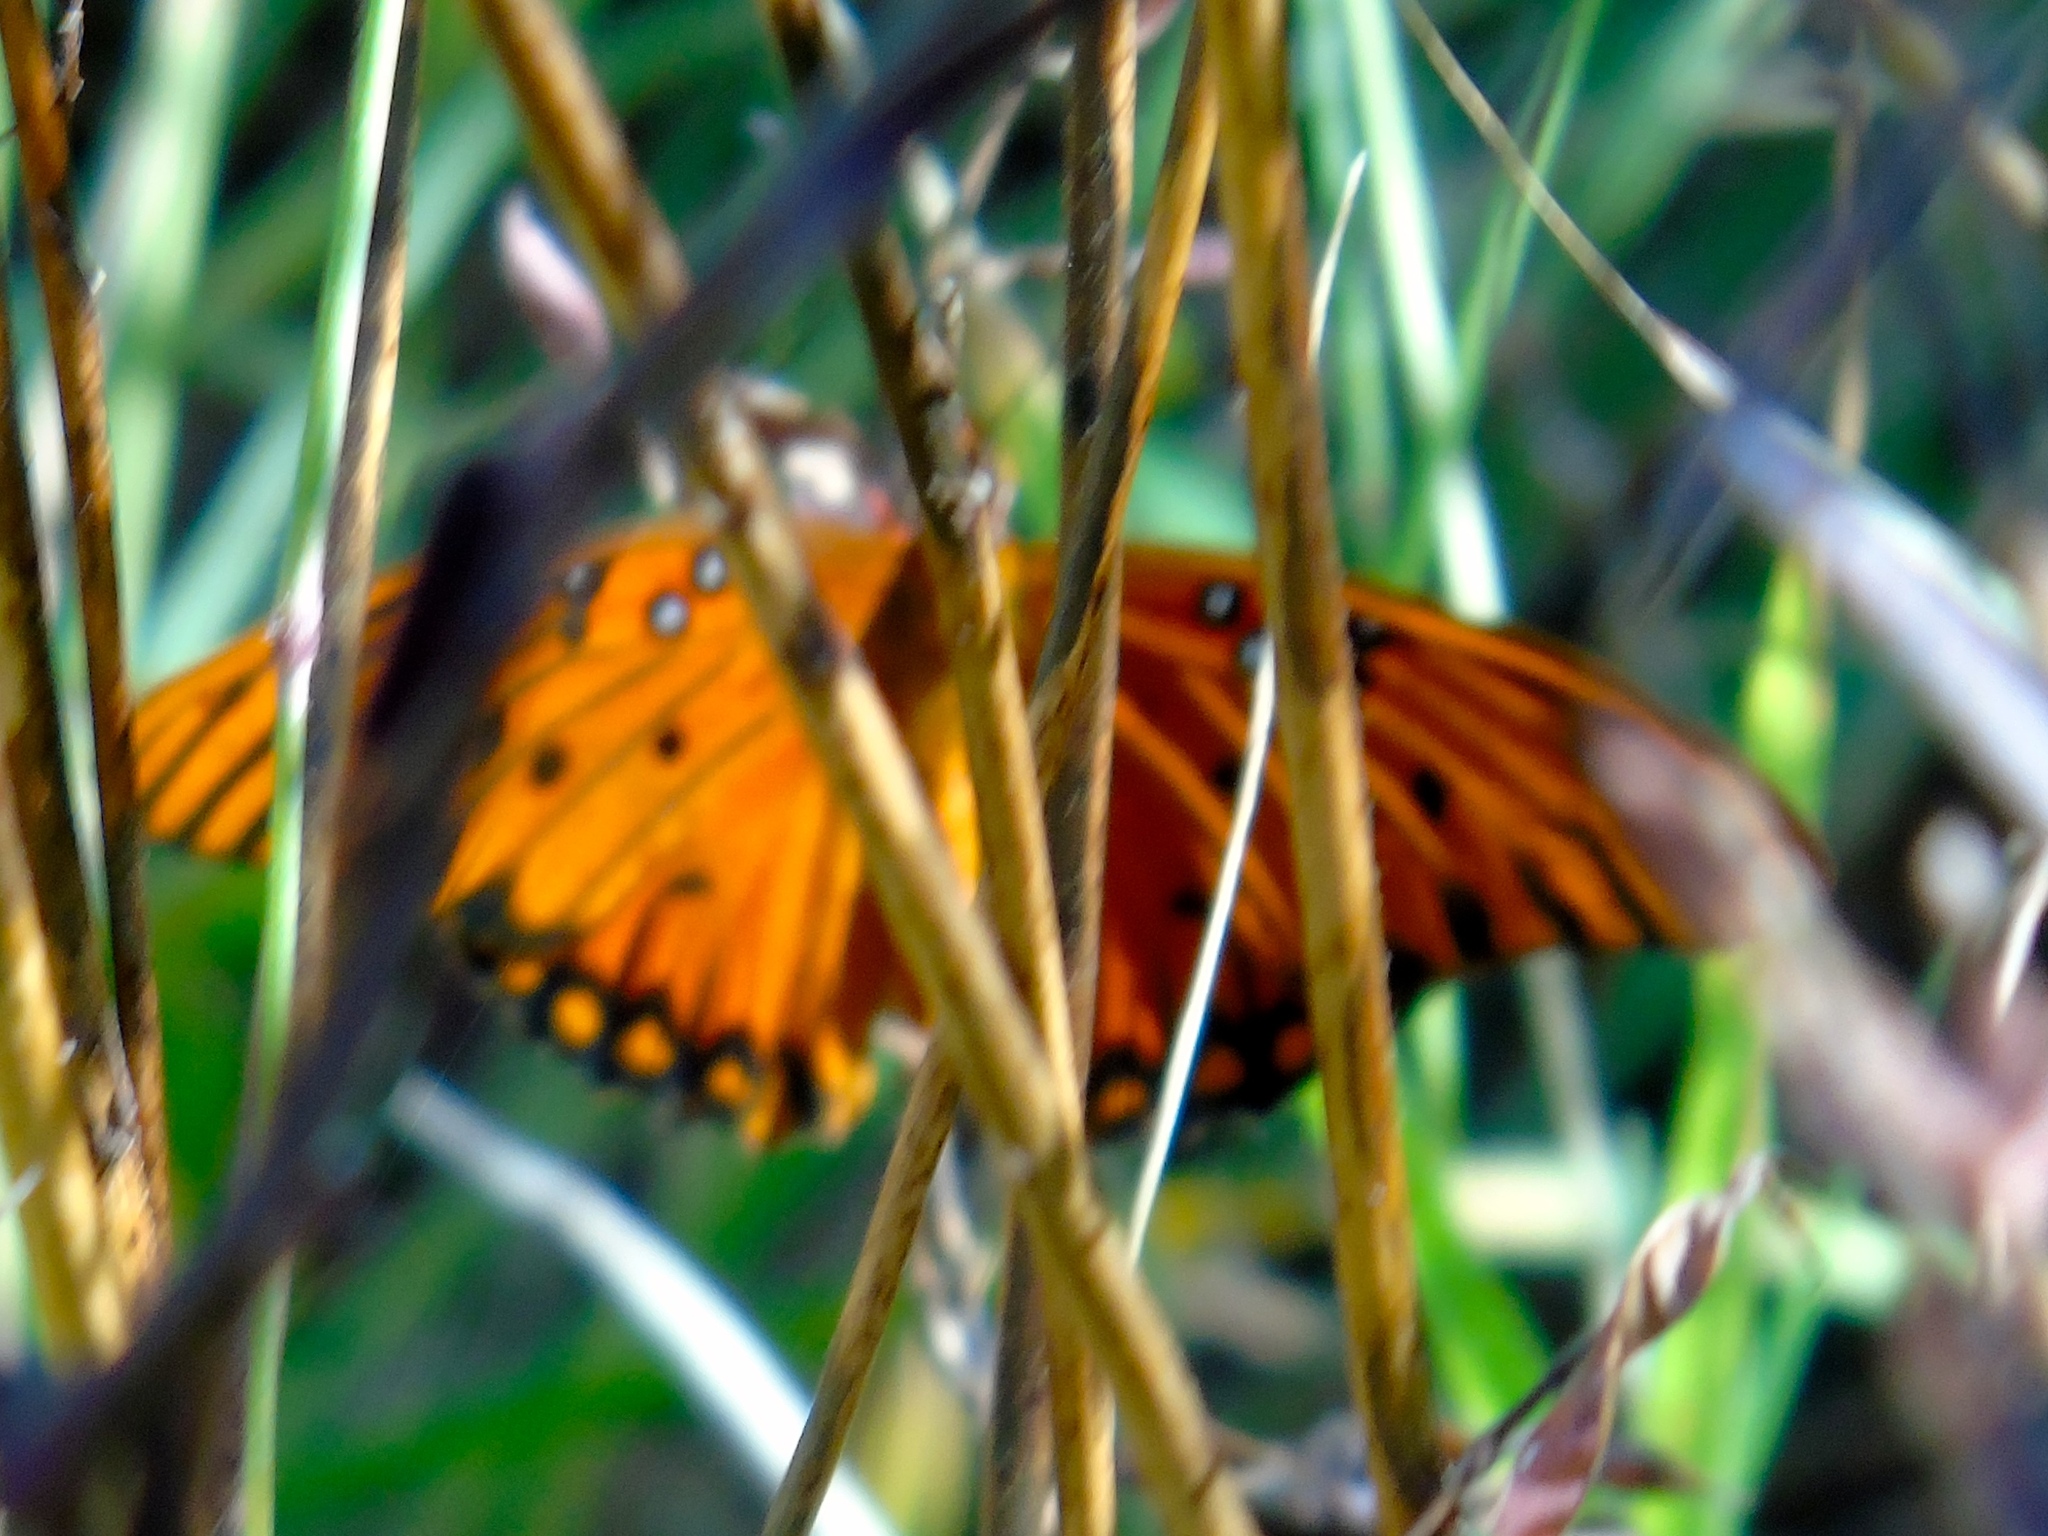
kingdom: Animalia
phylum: Arthropoda
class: Insecta
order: Lepidoptera
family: Nymphalidae
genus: Dione
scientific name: Dione vanillae
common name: Gulf fritillary
